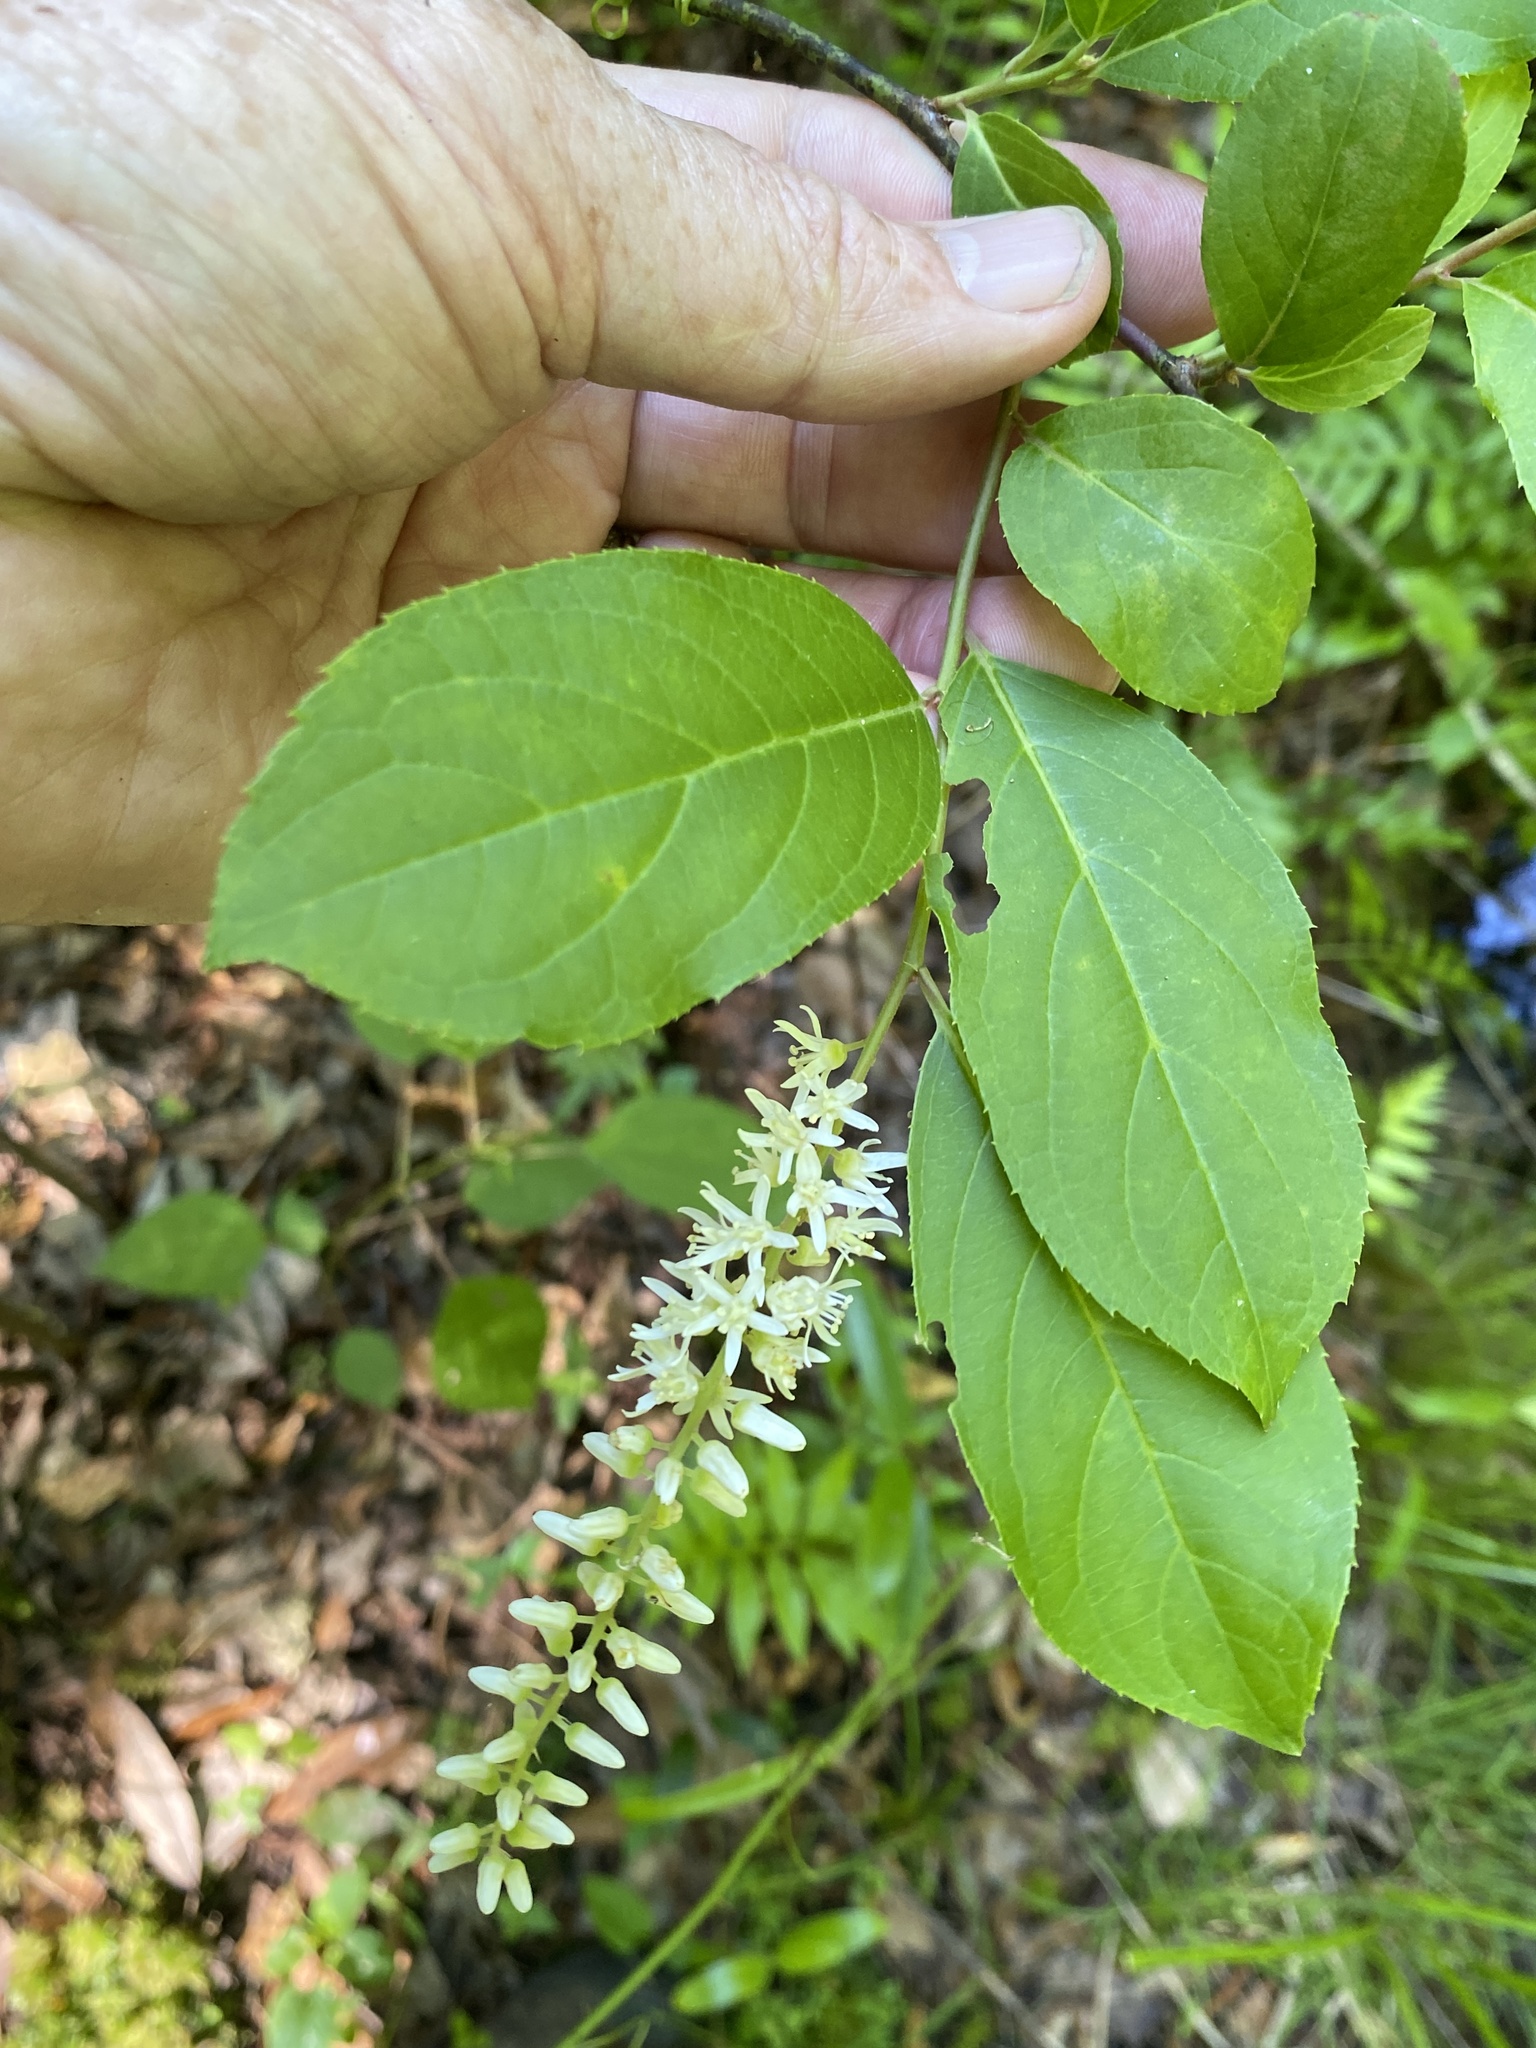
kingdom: Plantae
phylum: Tracheophyta
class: Magnoliopsida
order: Saxifragales
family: Iteaceae
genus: Itea
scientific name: Itea virginica
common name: Sweetspire
